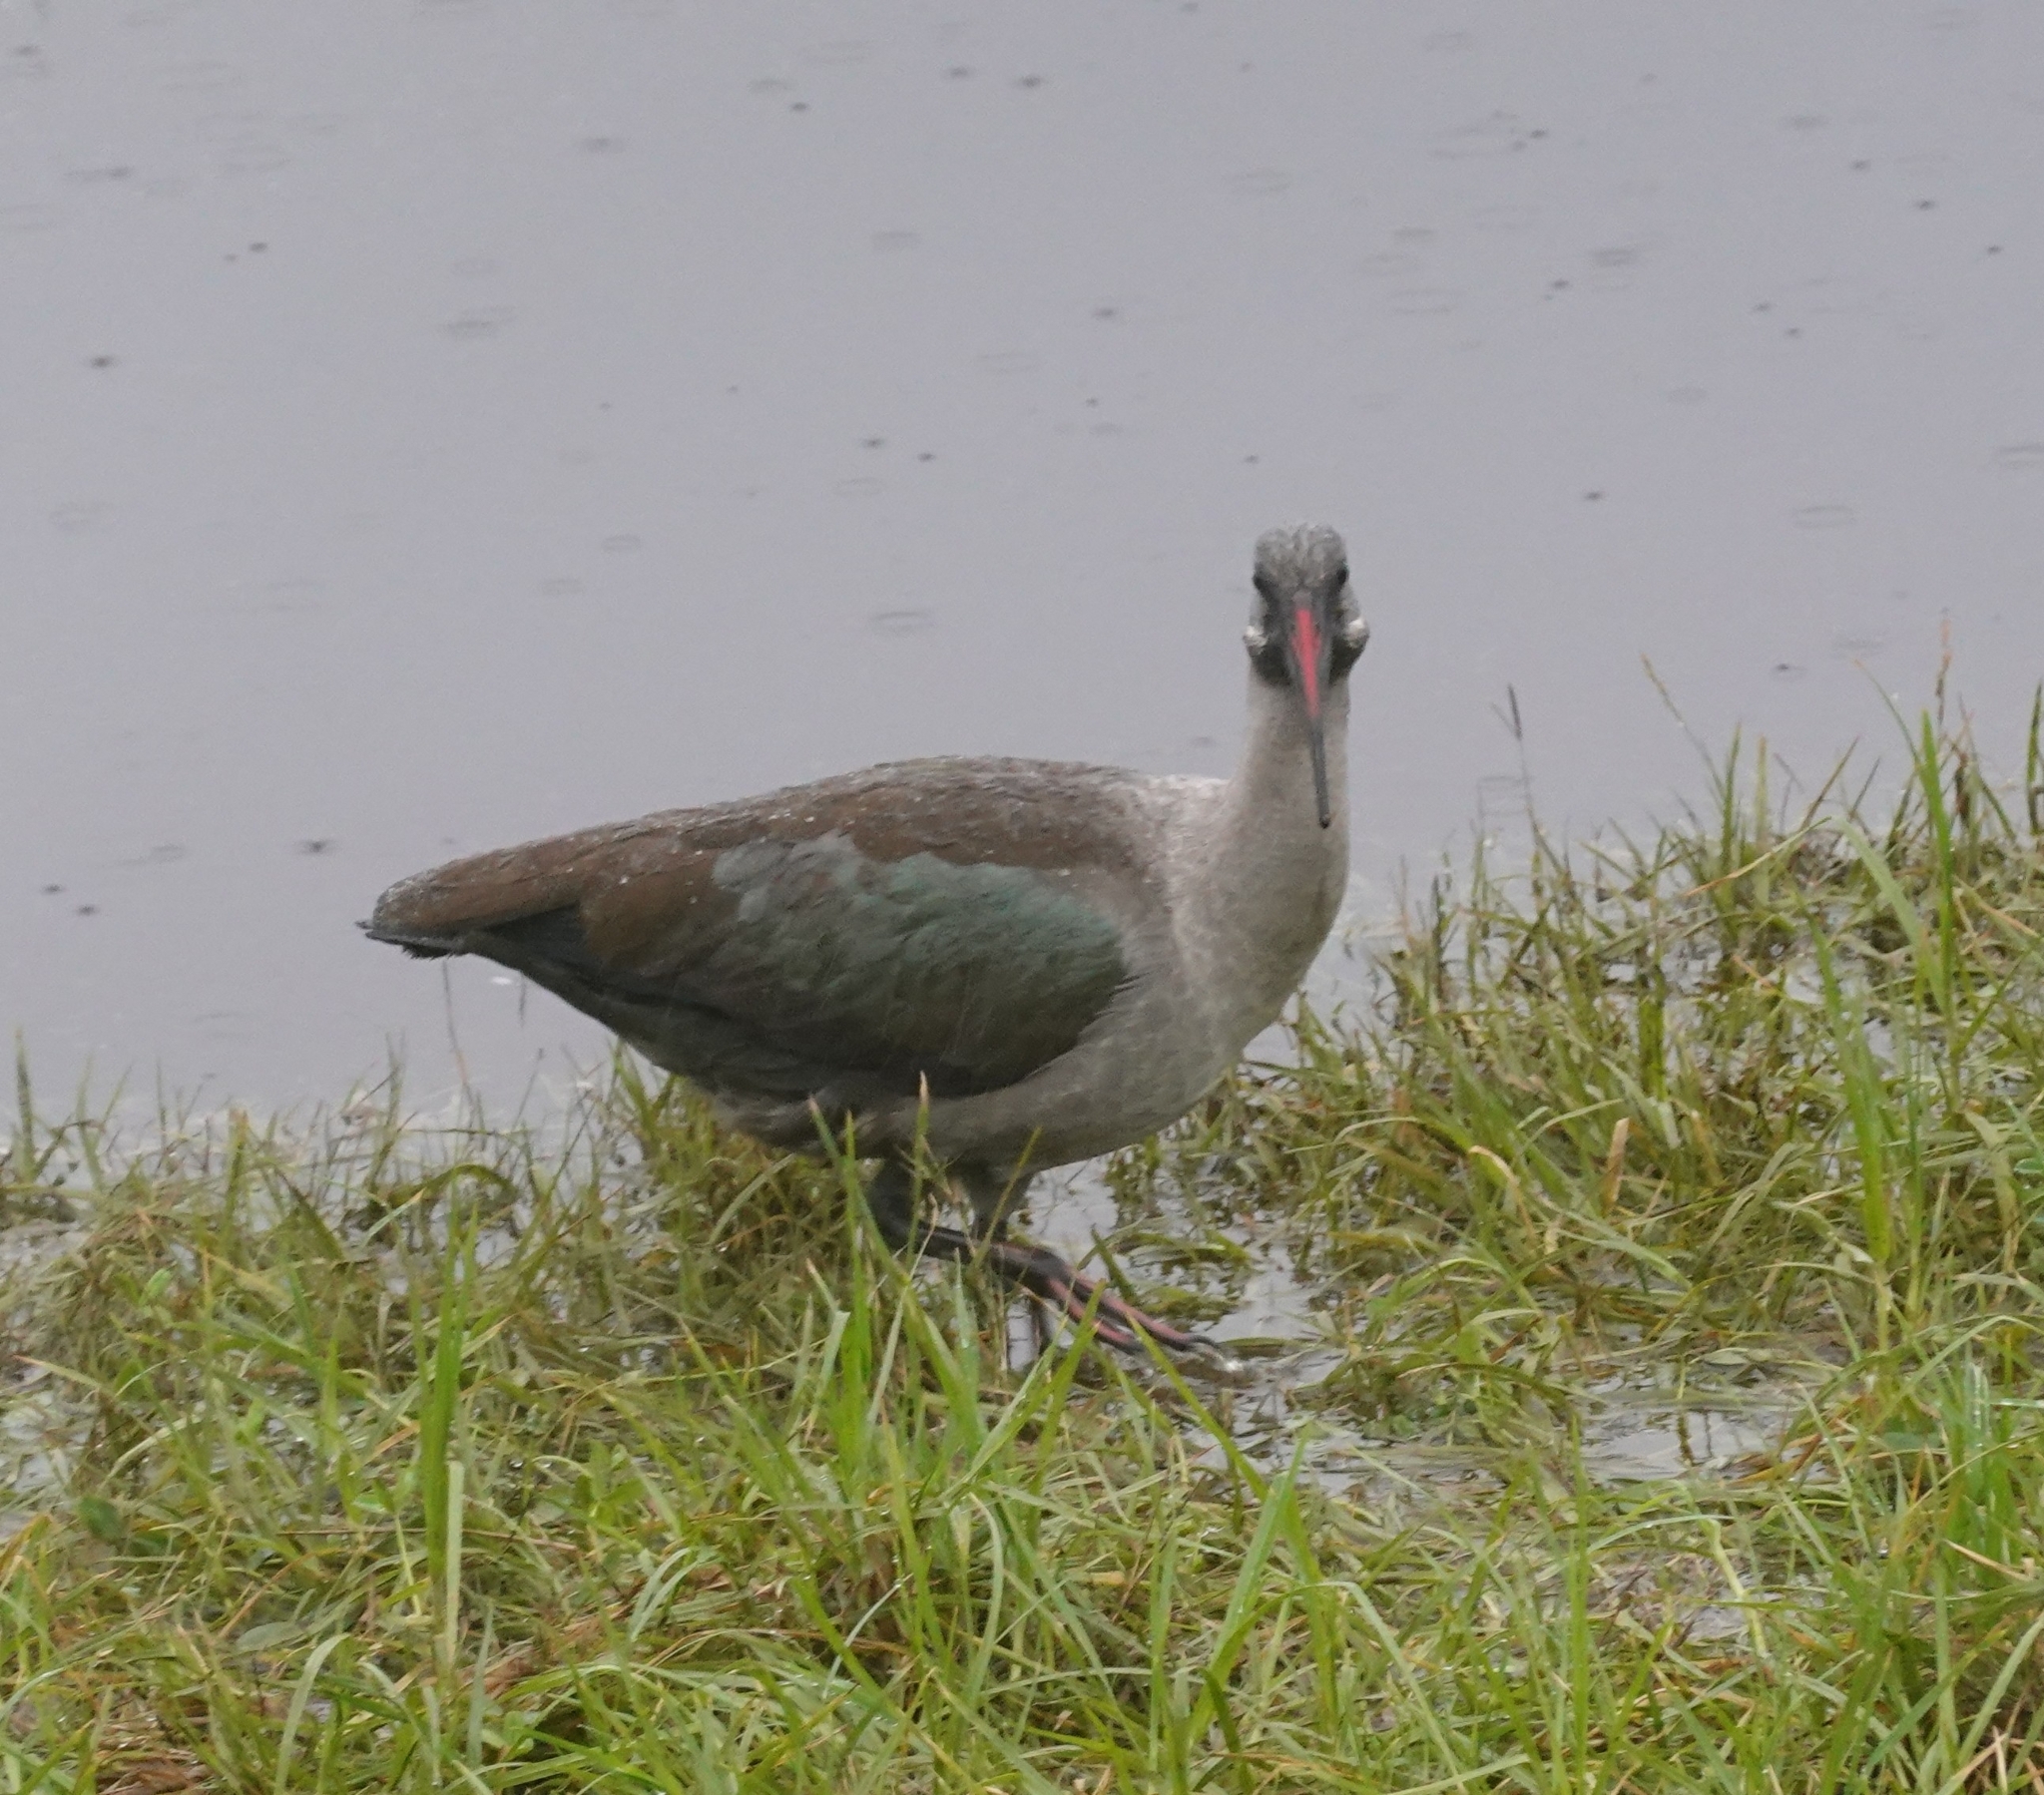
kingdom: Animalia
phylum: Chordata
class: Aves
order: Pelecaniformes
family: Threskiornithidae
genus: Bostrychia
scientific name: Bostrychia hagedash
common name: Hadada ibis
